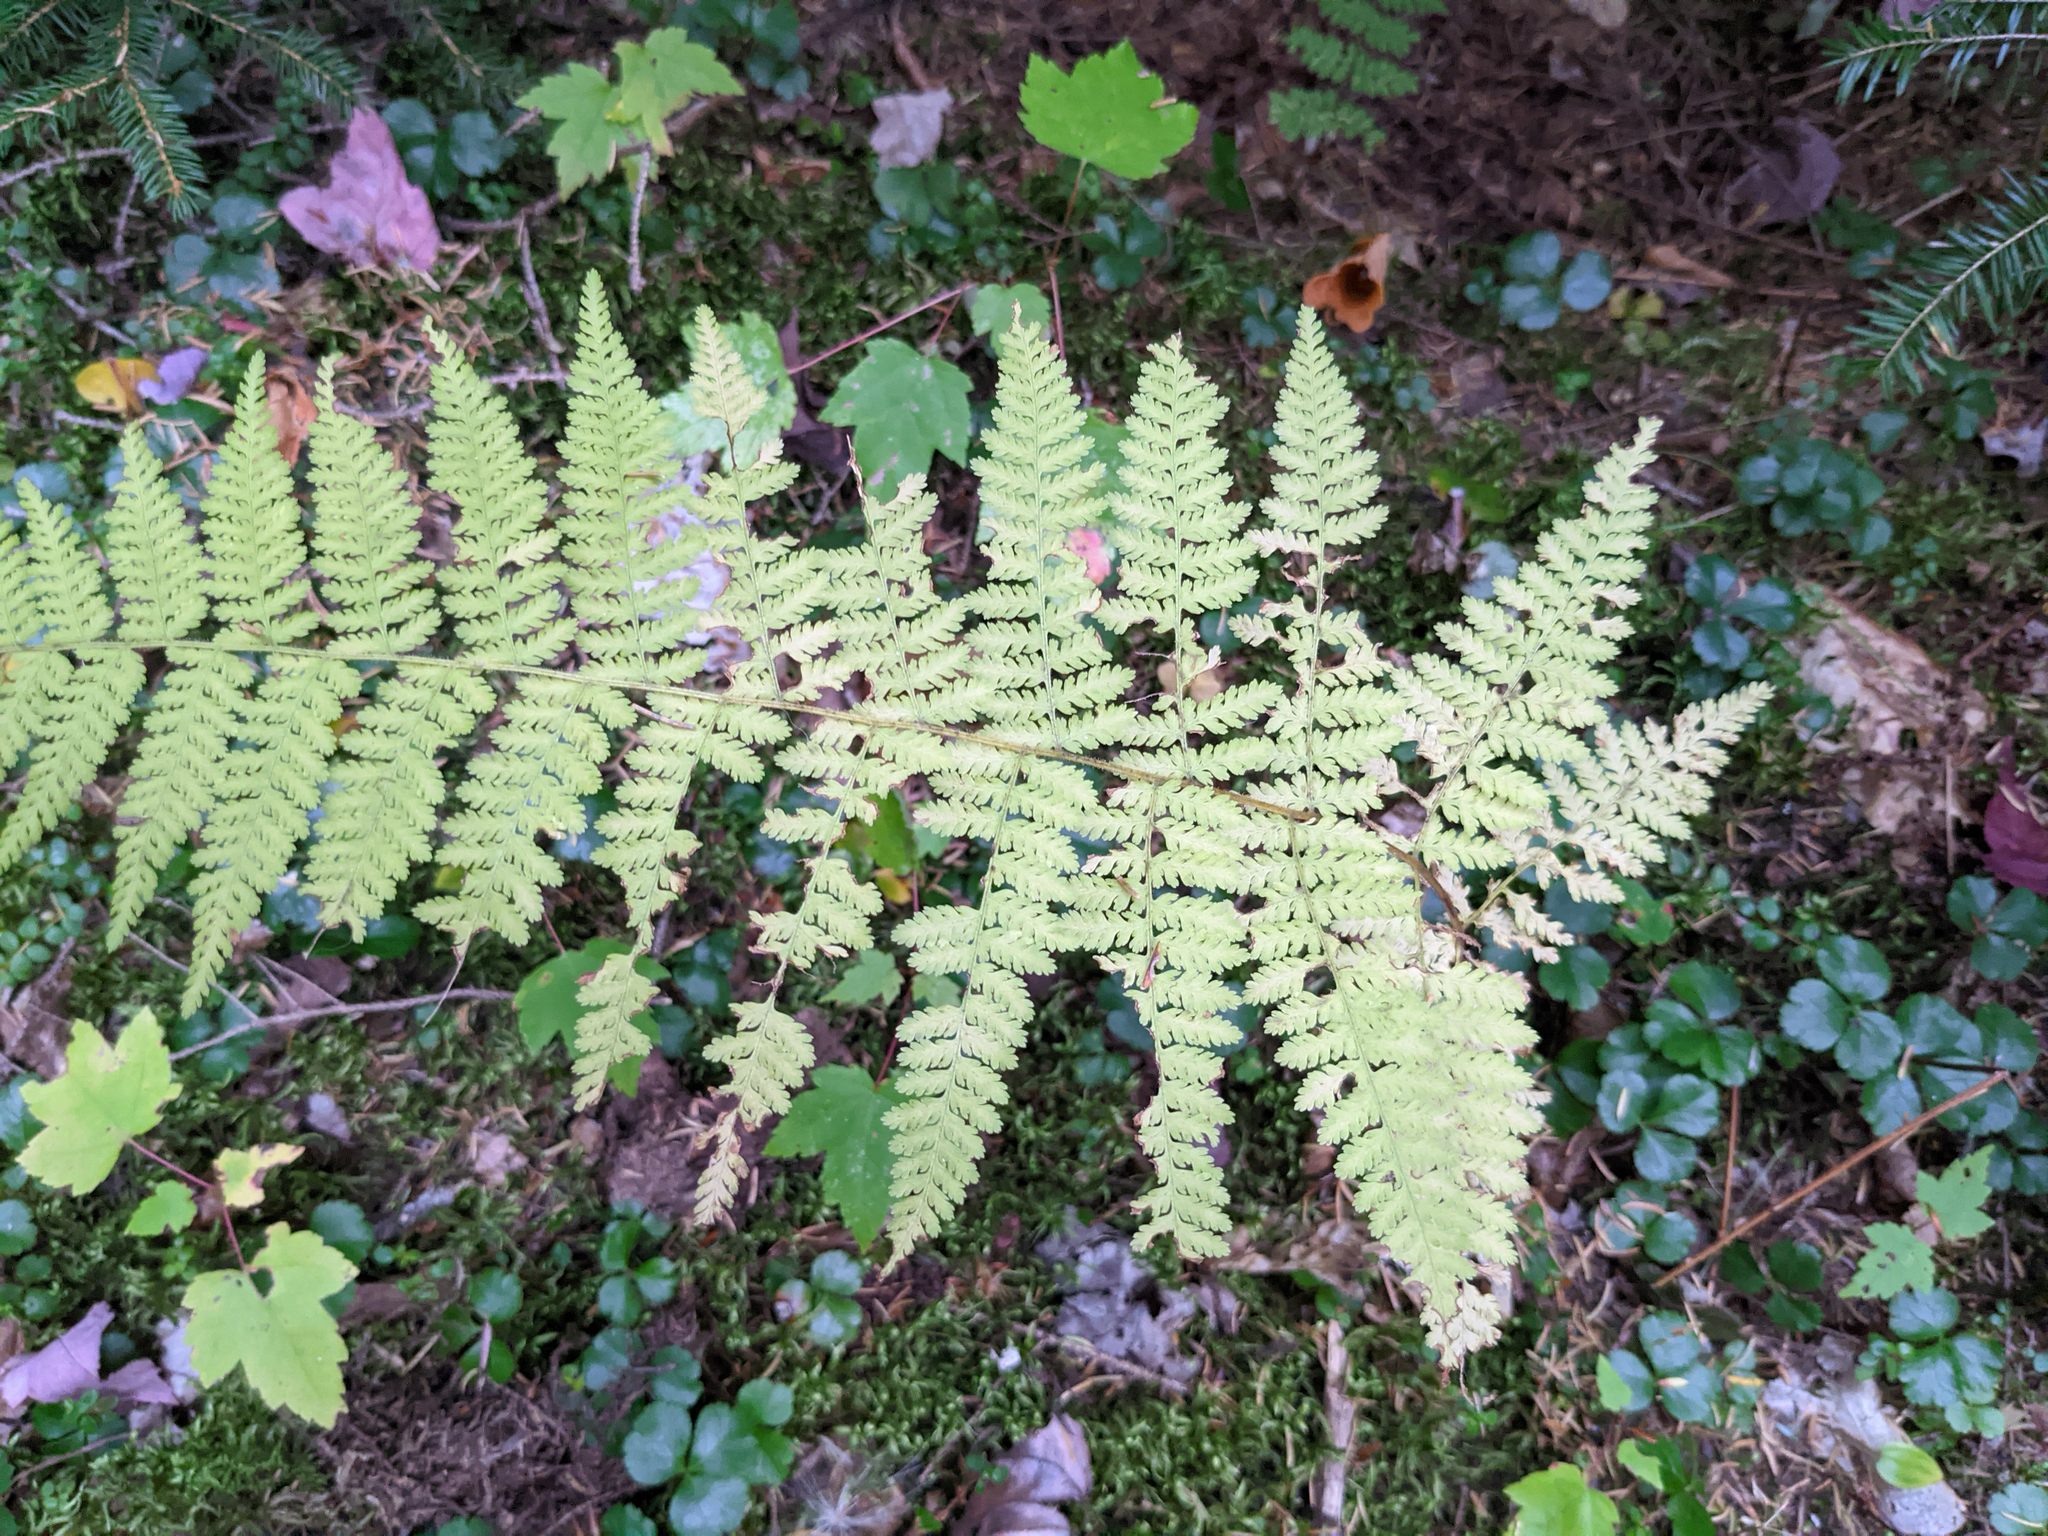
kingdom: Plantae
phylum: Tracheophyta
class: Polypodiopsida
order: Polypodiales
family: Dennstaedtiaceae
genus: Sitobolium
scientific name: Sitobolium punctilobum
